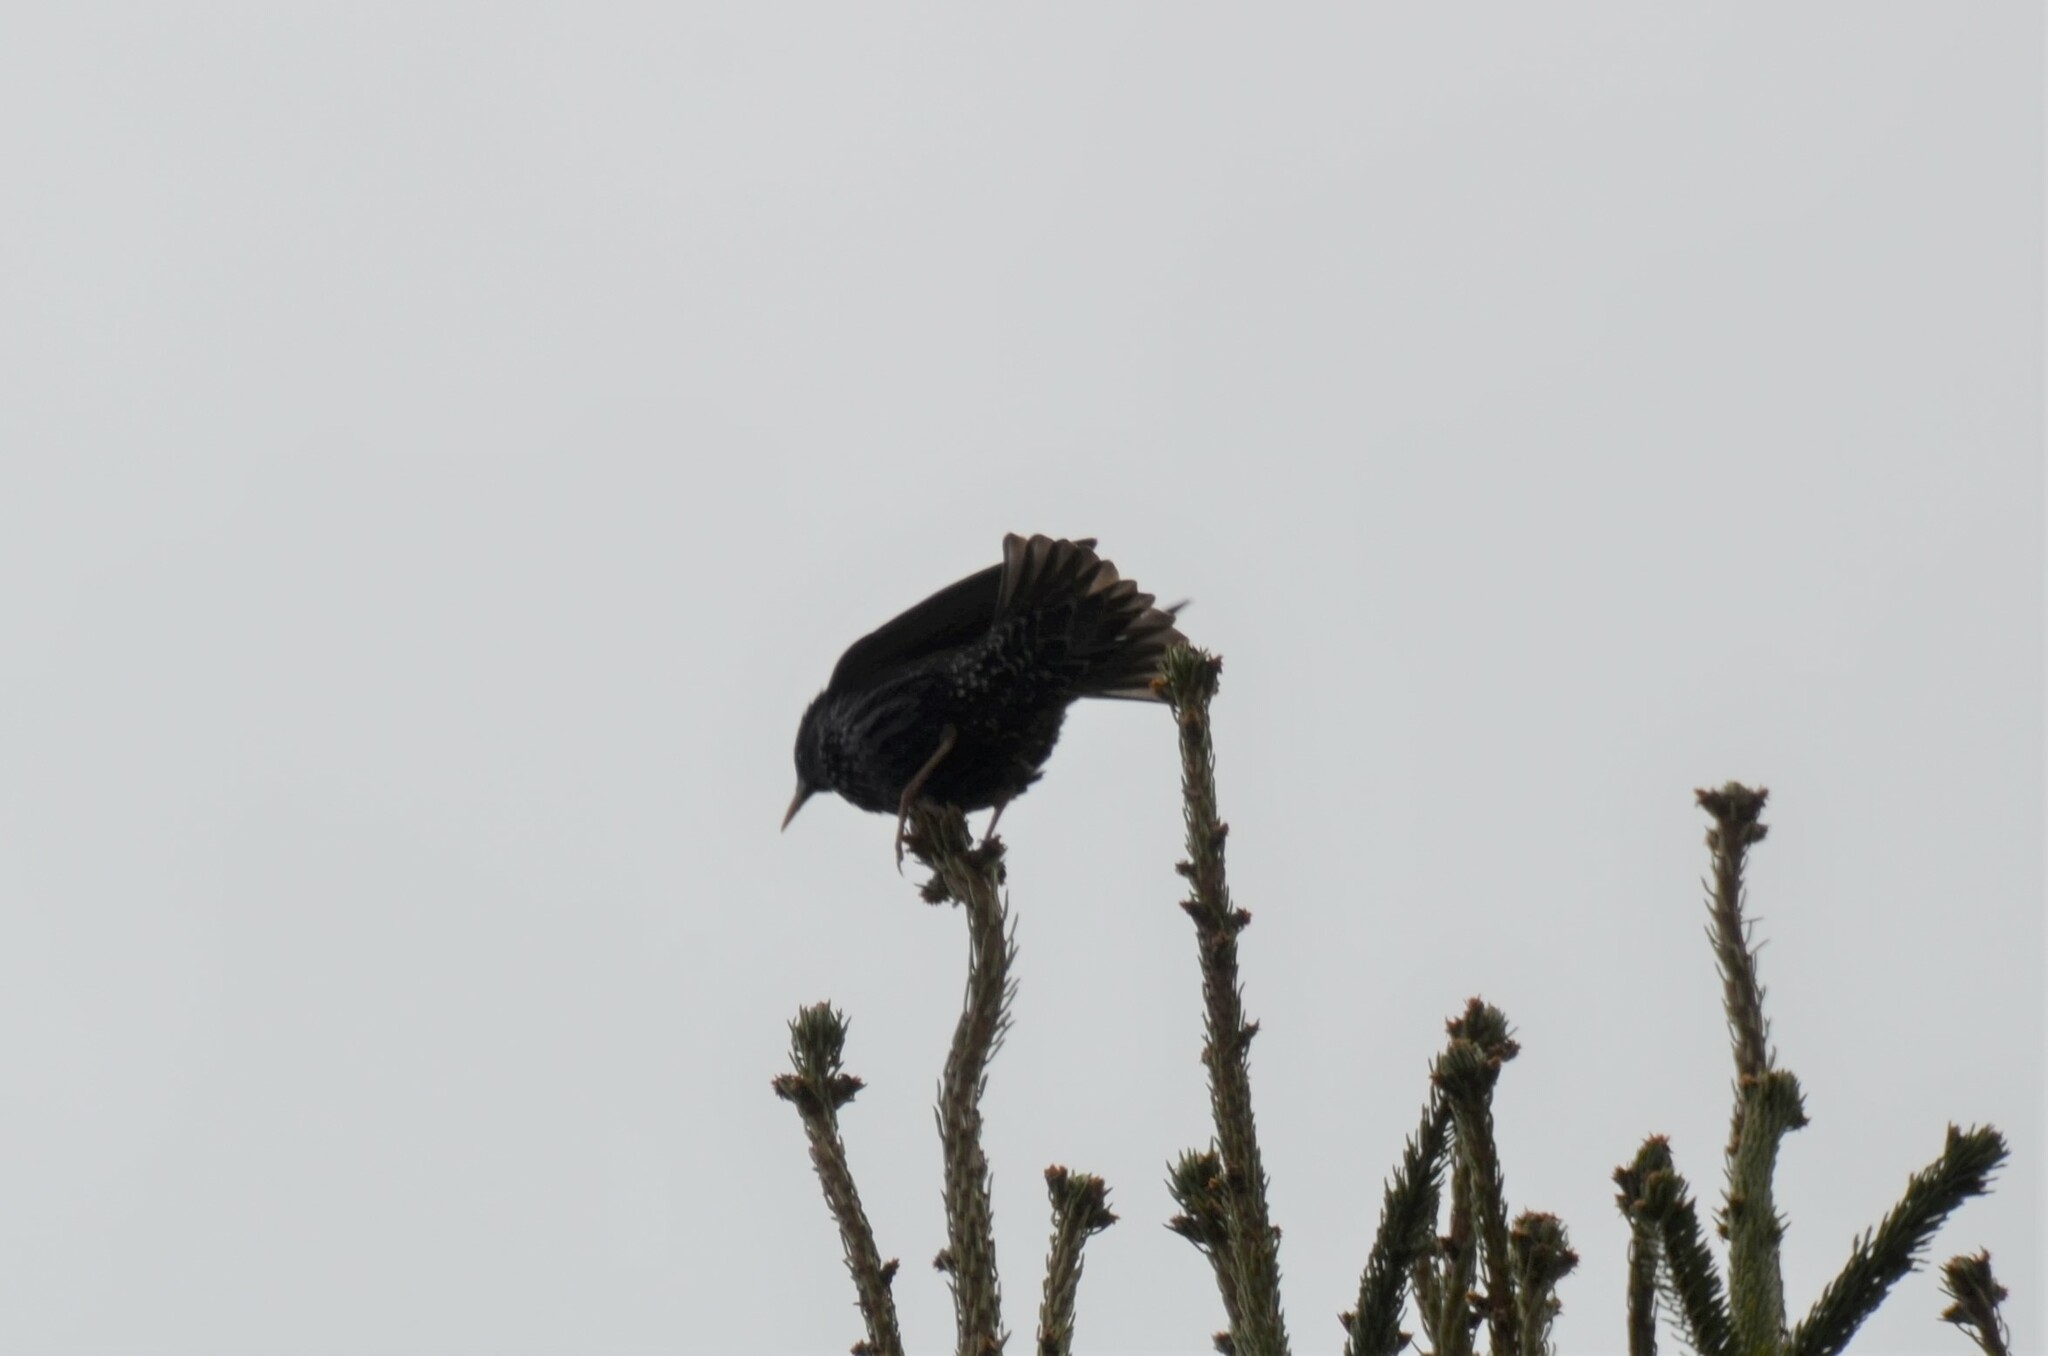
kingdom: Animalia
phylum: Chordata
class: Aves
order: Passeriformes
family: Sturnidae
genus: Sturnus
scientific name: Sturnus vulgaris
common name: Common starling
